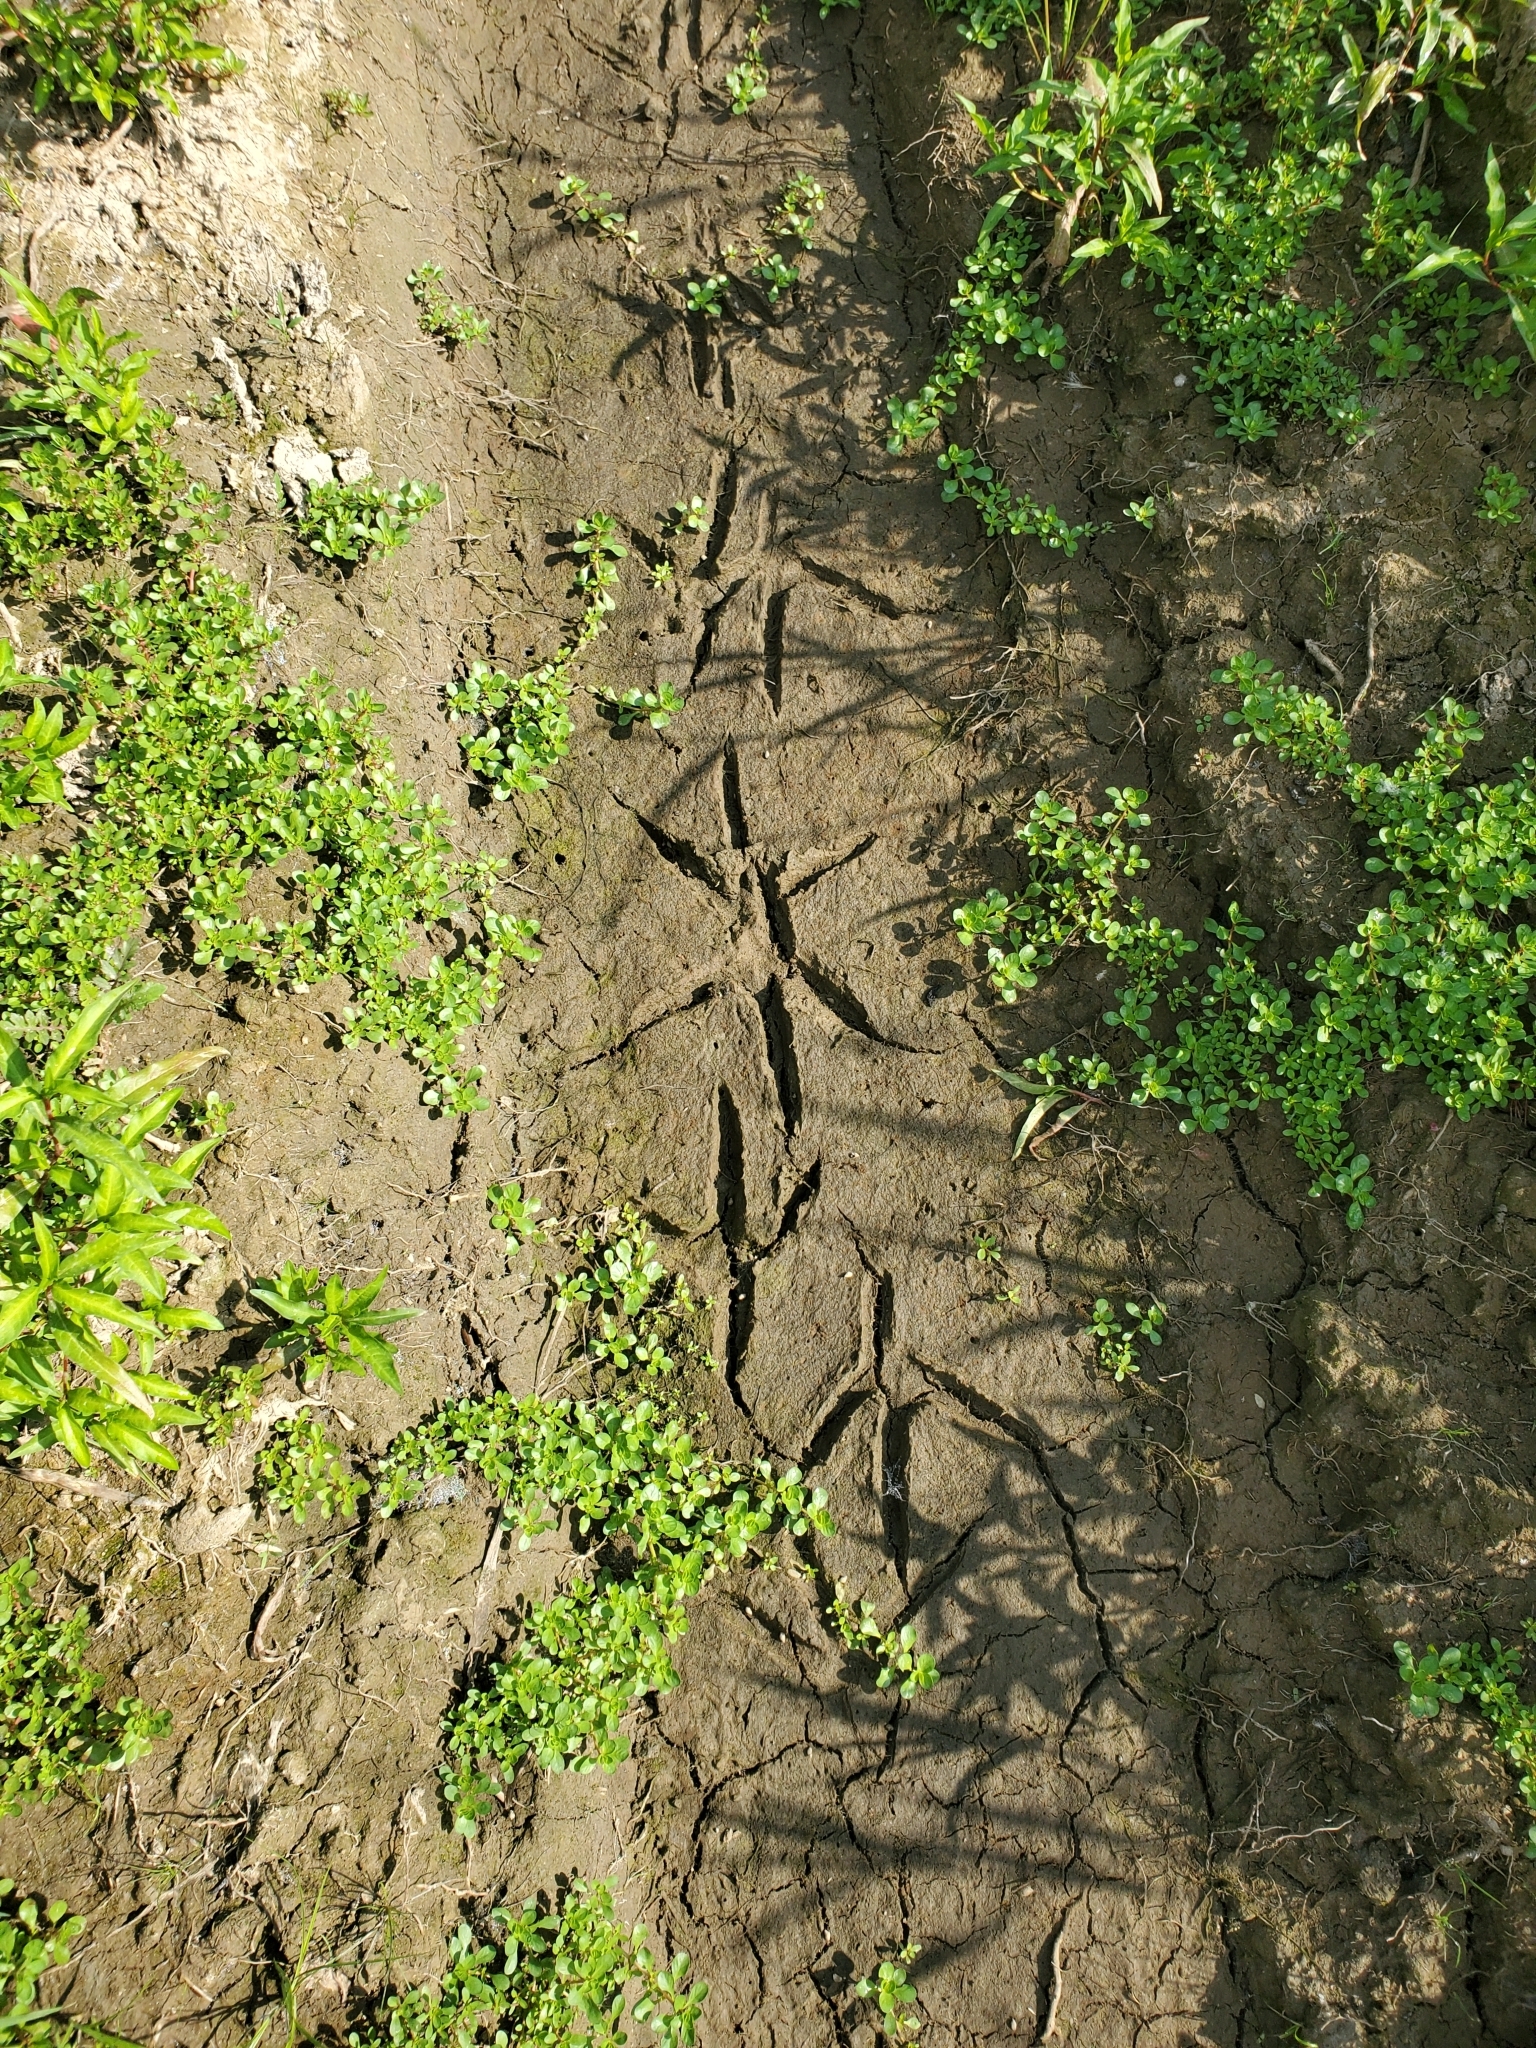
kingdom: Animalia
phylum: Chordata
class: Aves
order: Pelecaniformes
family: Ardeidae
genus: Ardea
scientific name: Ardea herodias
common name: Great blue heron
